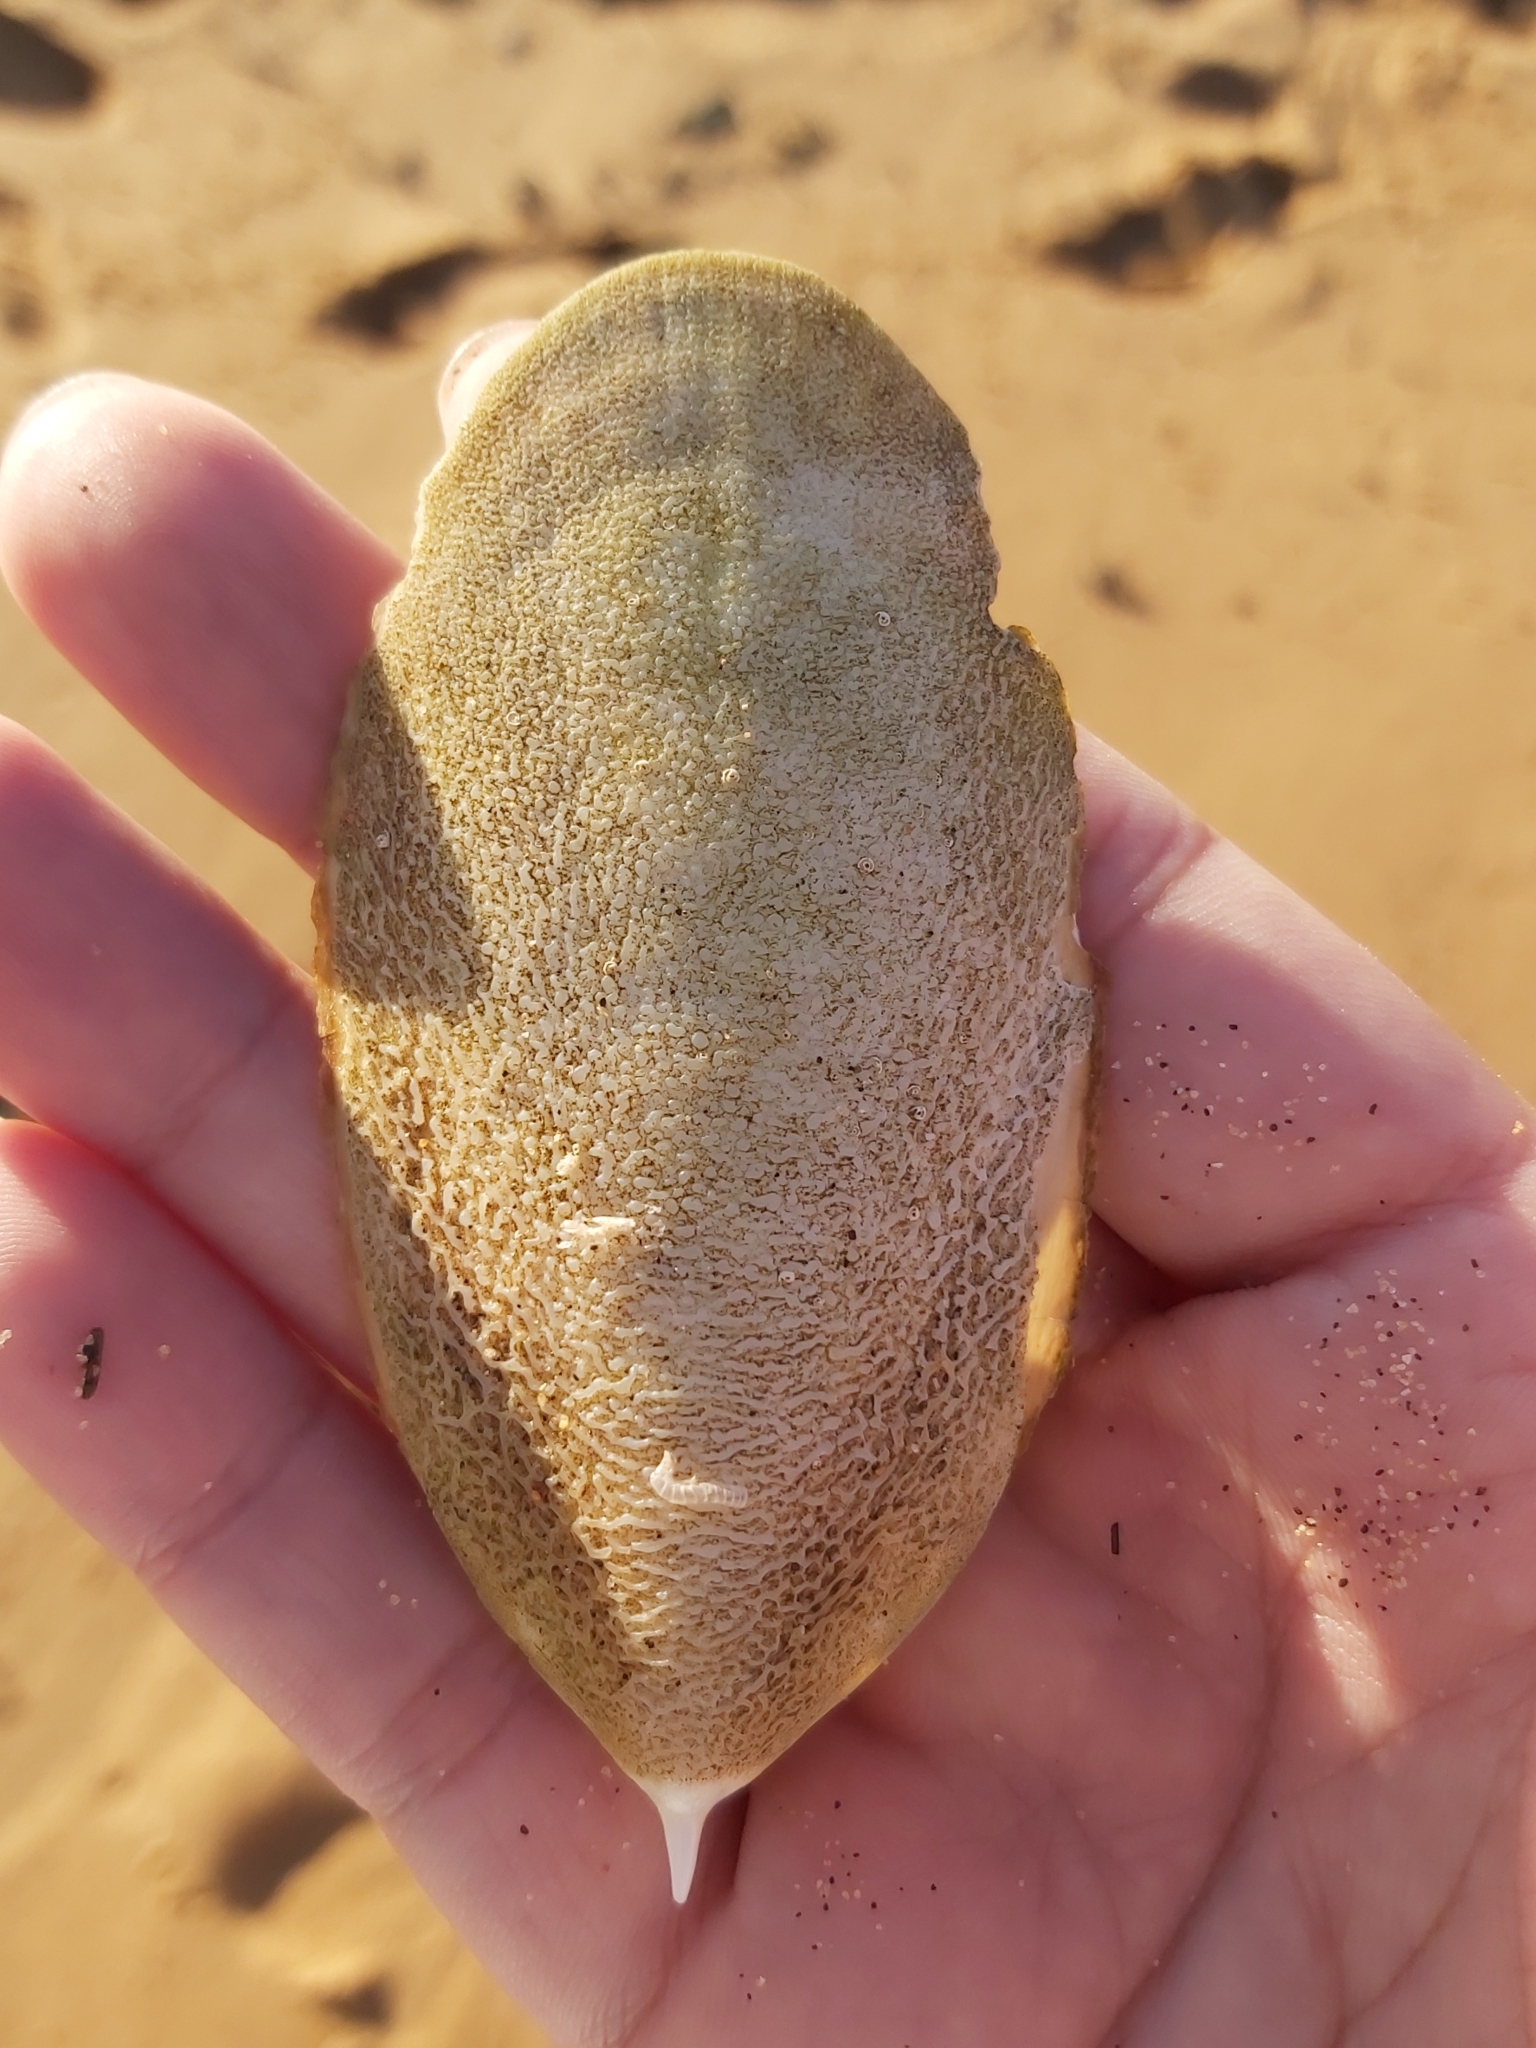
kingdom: Animalia
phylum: Mollusca
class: Cephalopoda
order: Sepiida
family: Sepiidae
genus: Ascarosepion
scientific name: Ascarosepion mestus
